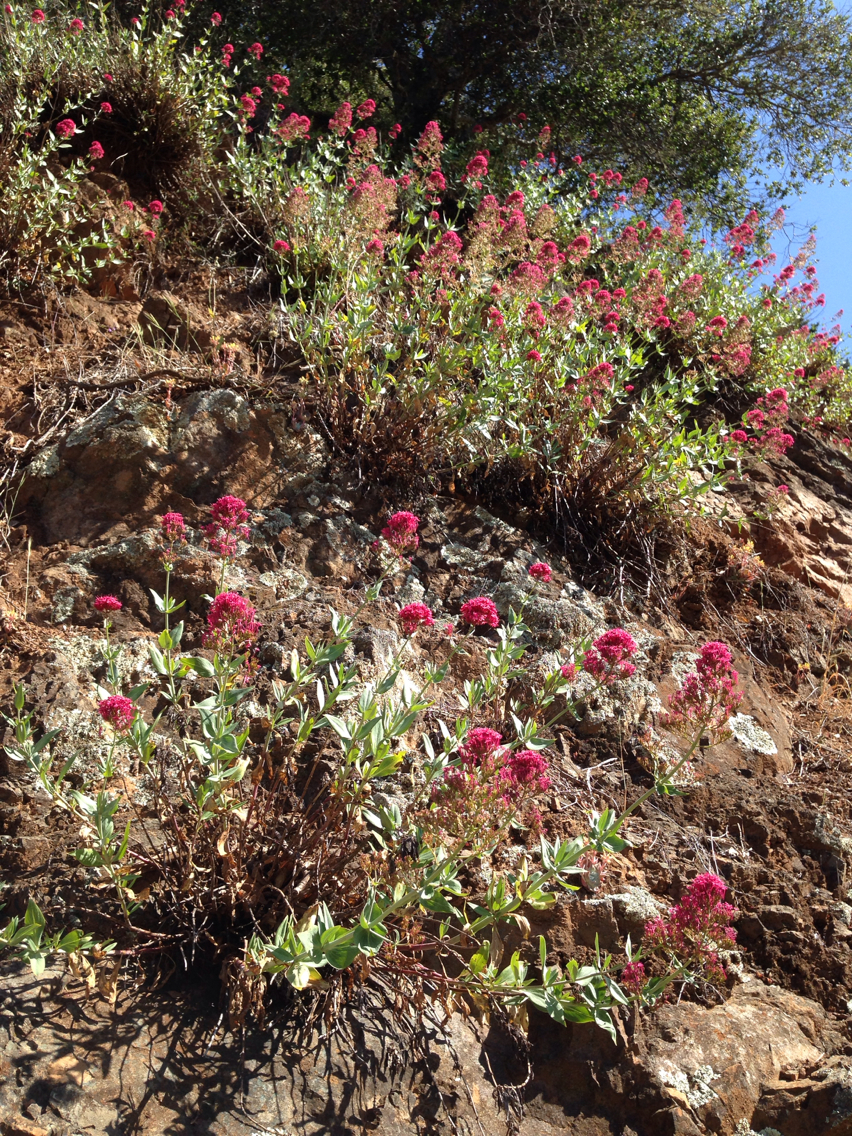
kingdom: Plantae
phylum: Tracheophyta
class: Magnoliopsida
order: Dipsacales
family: Caprifoliaceae
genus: Centranthus
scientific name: Centranthus ruber
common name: Red valerian
